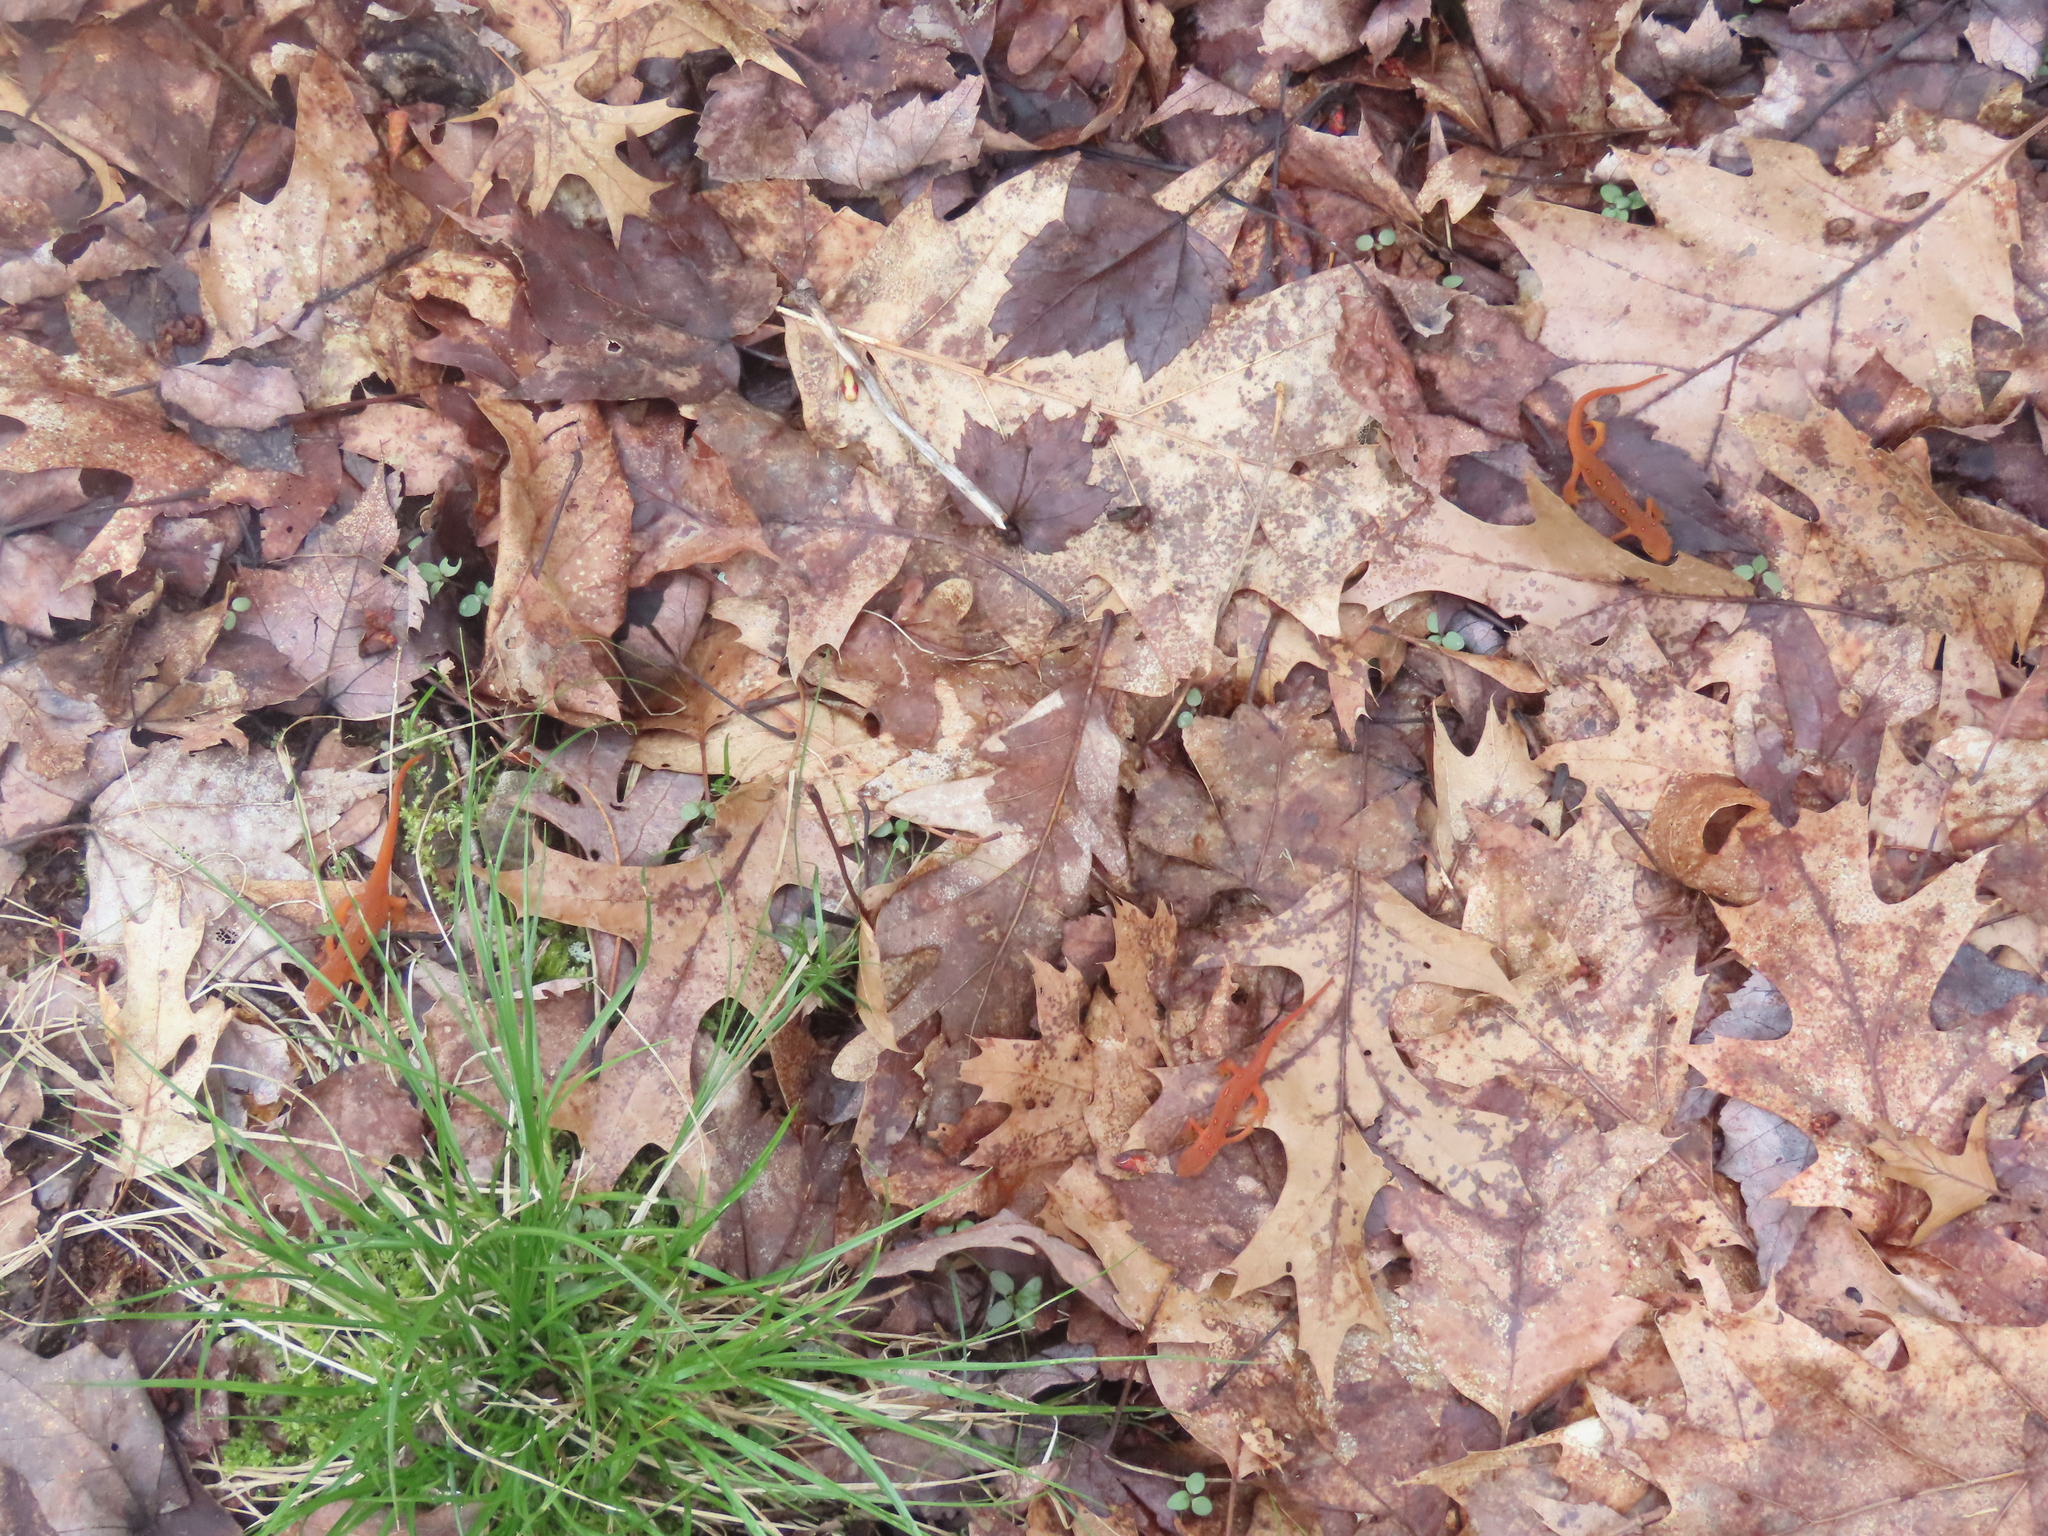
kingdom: Animalia
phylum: Chordata
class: Amphibia
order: Caudata
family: Salamandridae
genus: Notophthalmus
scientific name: Notophthalmus viridescens
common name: Eastern newt
